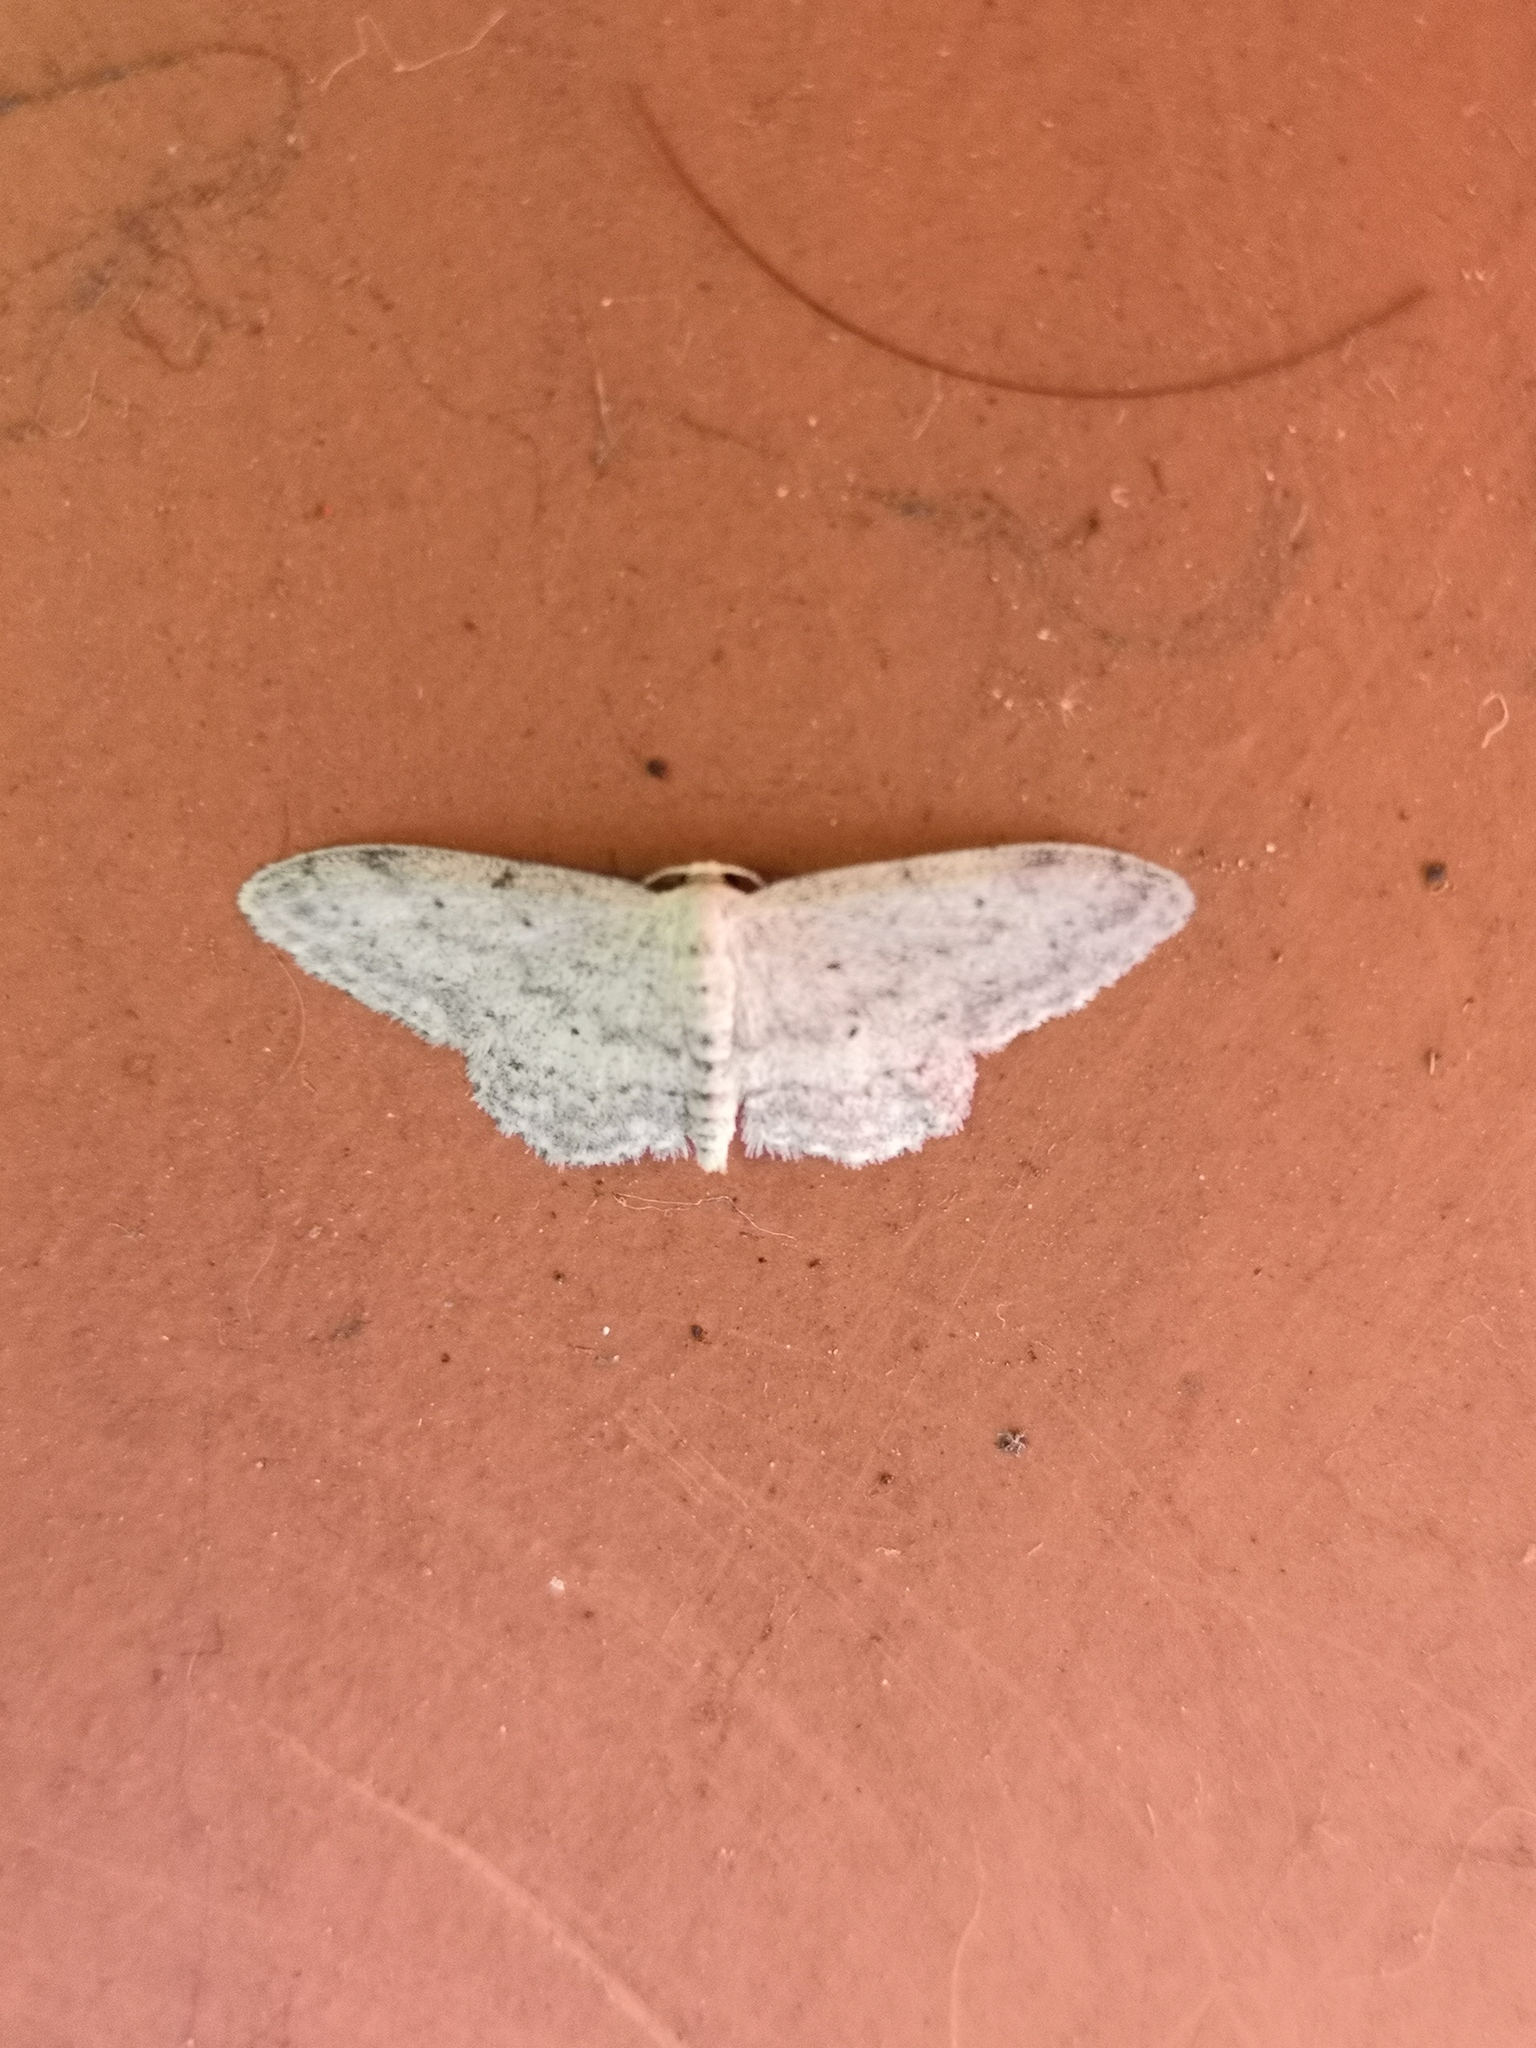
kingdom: Animalia
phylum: Arthropoda
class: Insecta
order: Lepidoptera
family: Geometridae
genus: Idaea
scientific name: Idaea seriata
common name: Small dusty wave
